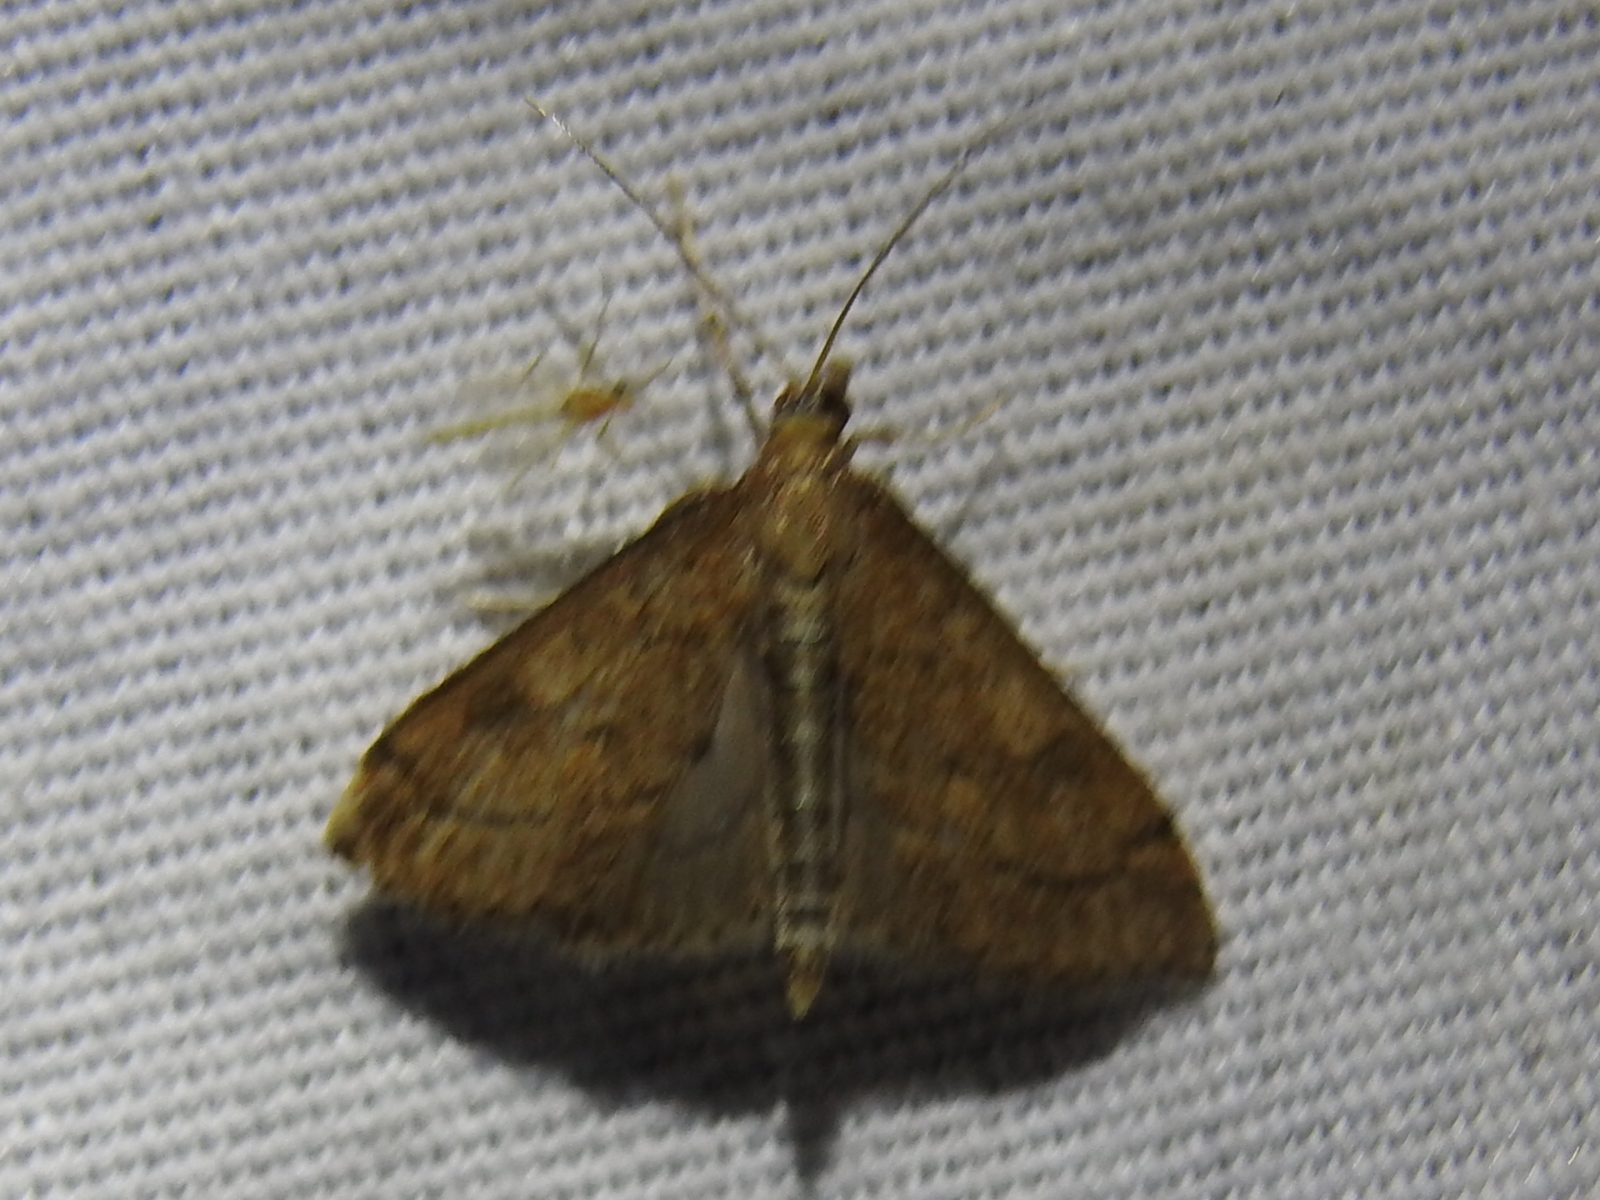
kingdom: Animalia
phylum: Arthropoda
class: Insecta
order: Lepidoptera
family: Crambidae
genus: Udea
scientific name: Udea rubigalis
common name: Celery leaftier moth
